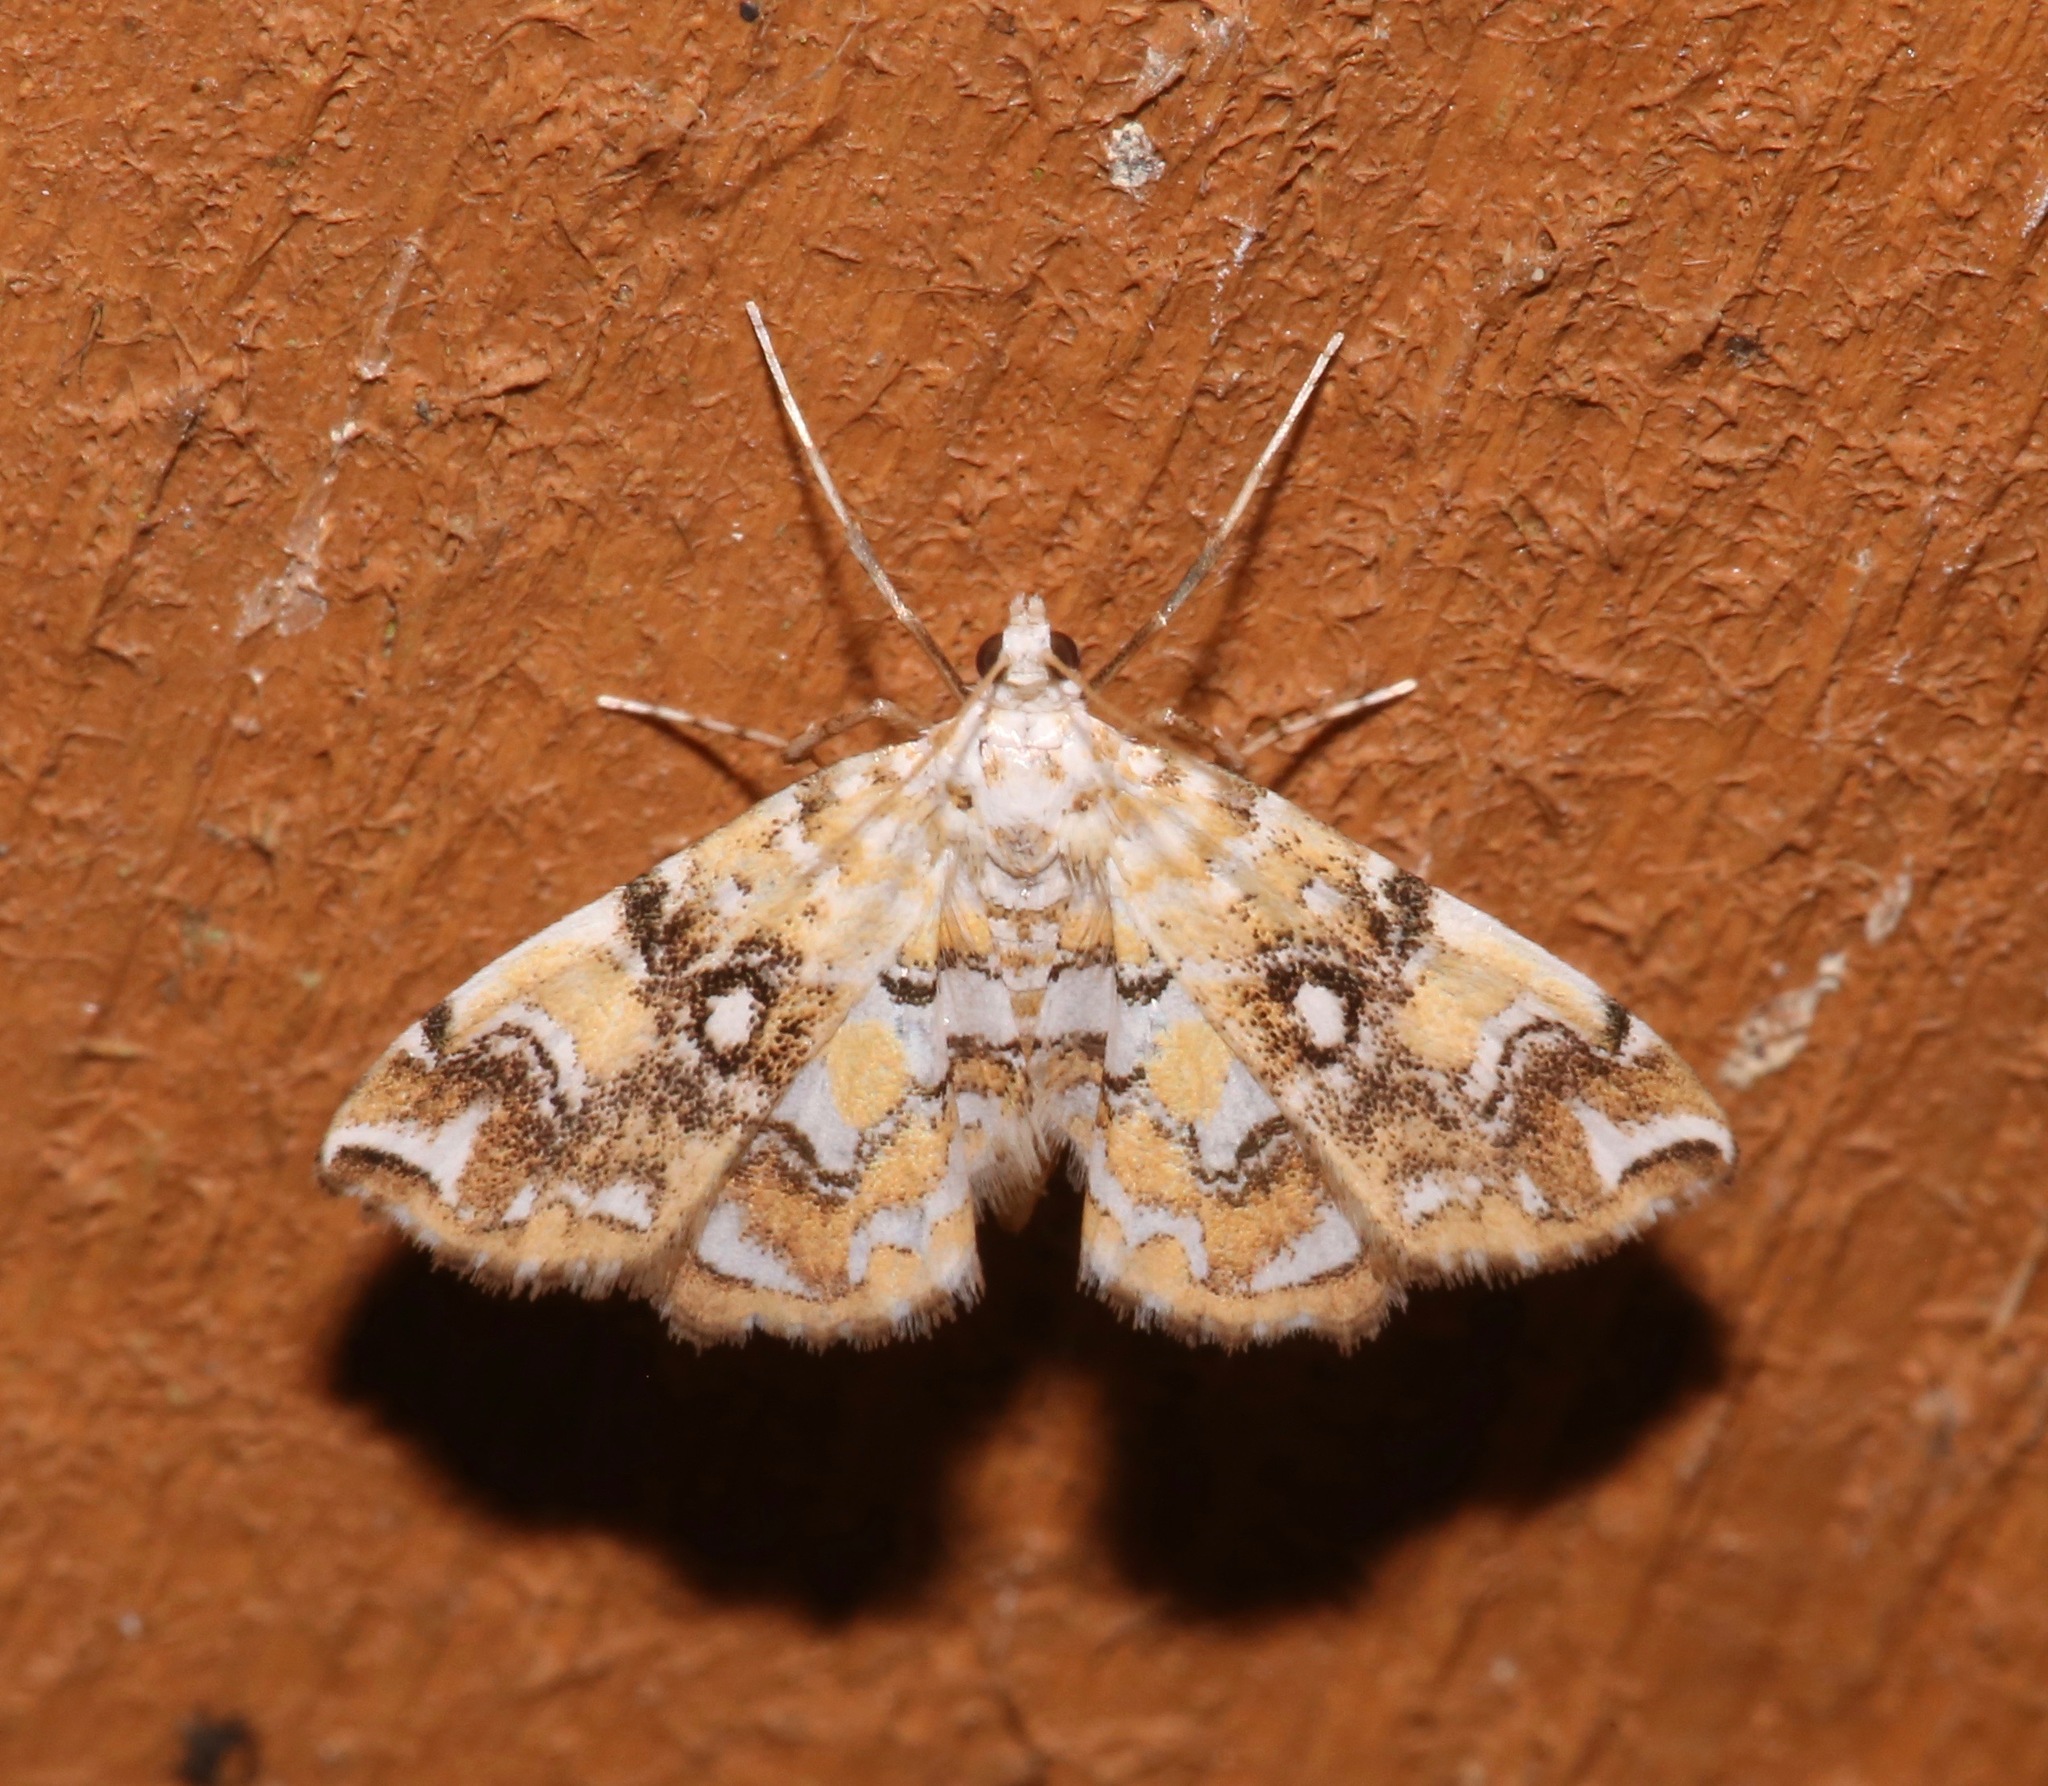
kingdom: Animalia
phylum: Arthropoda
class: Insecta
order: Lepidoptera
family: Crambidae
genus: Elophila
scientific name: Elophila faulalis
